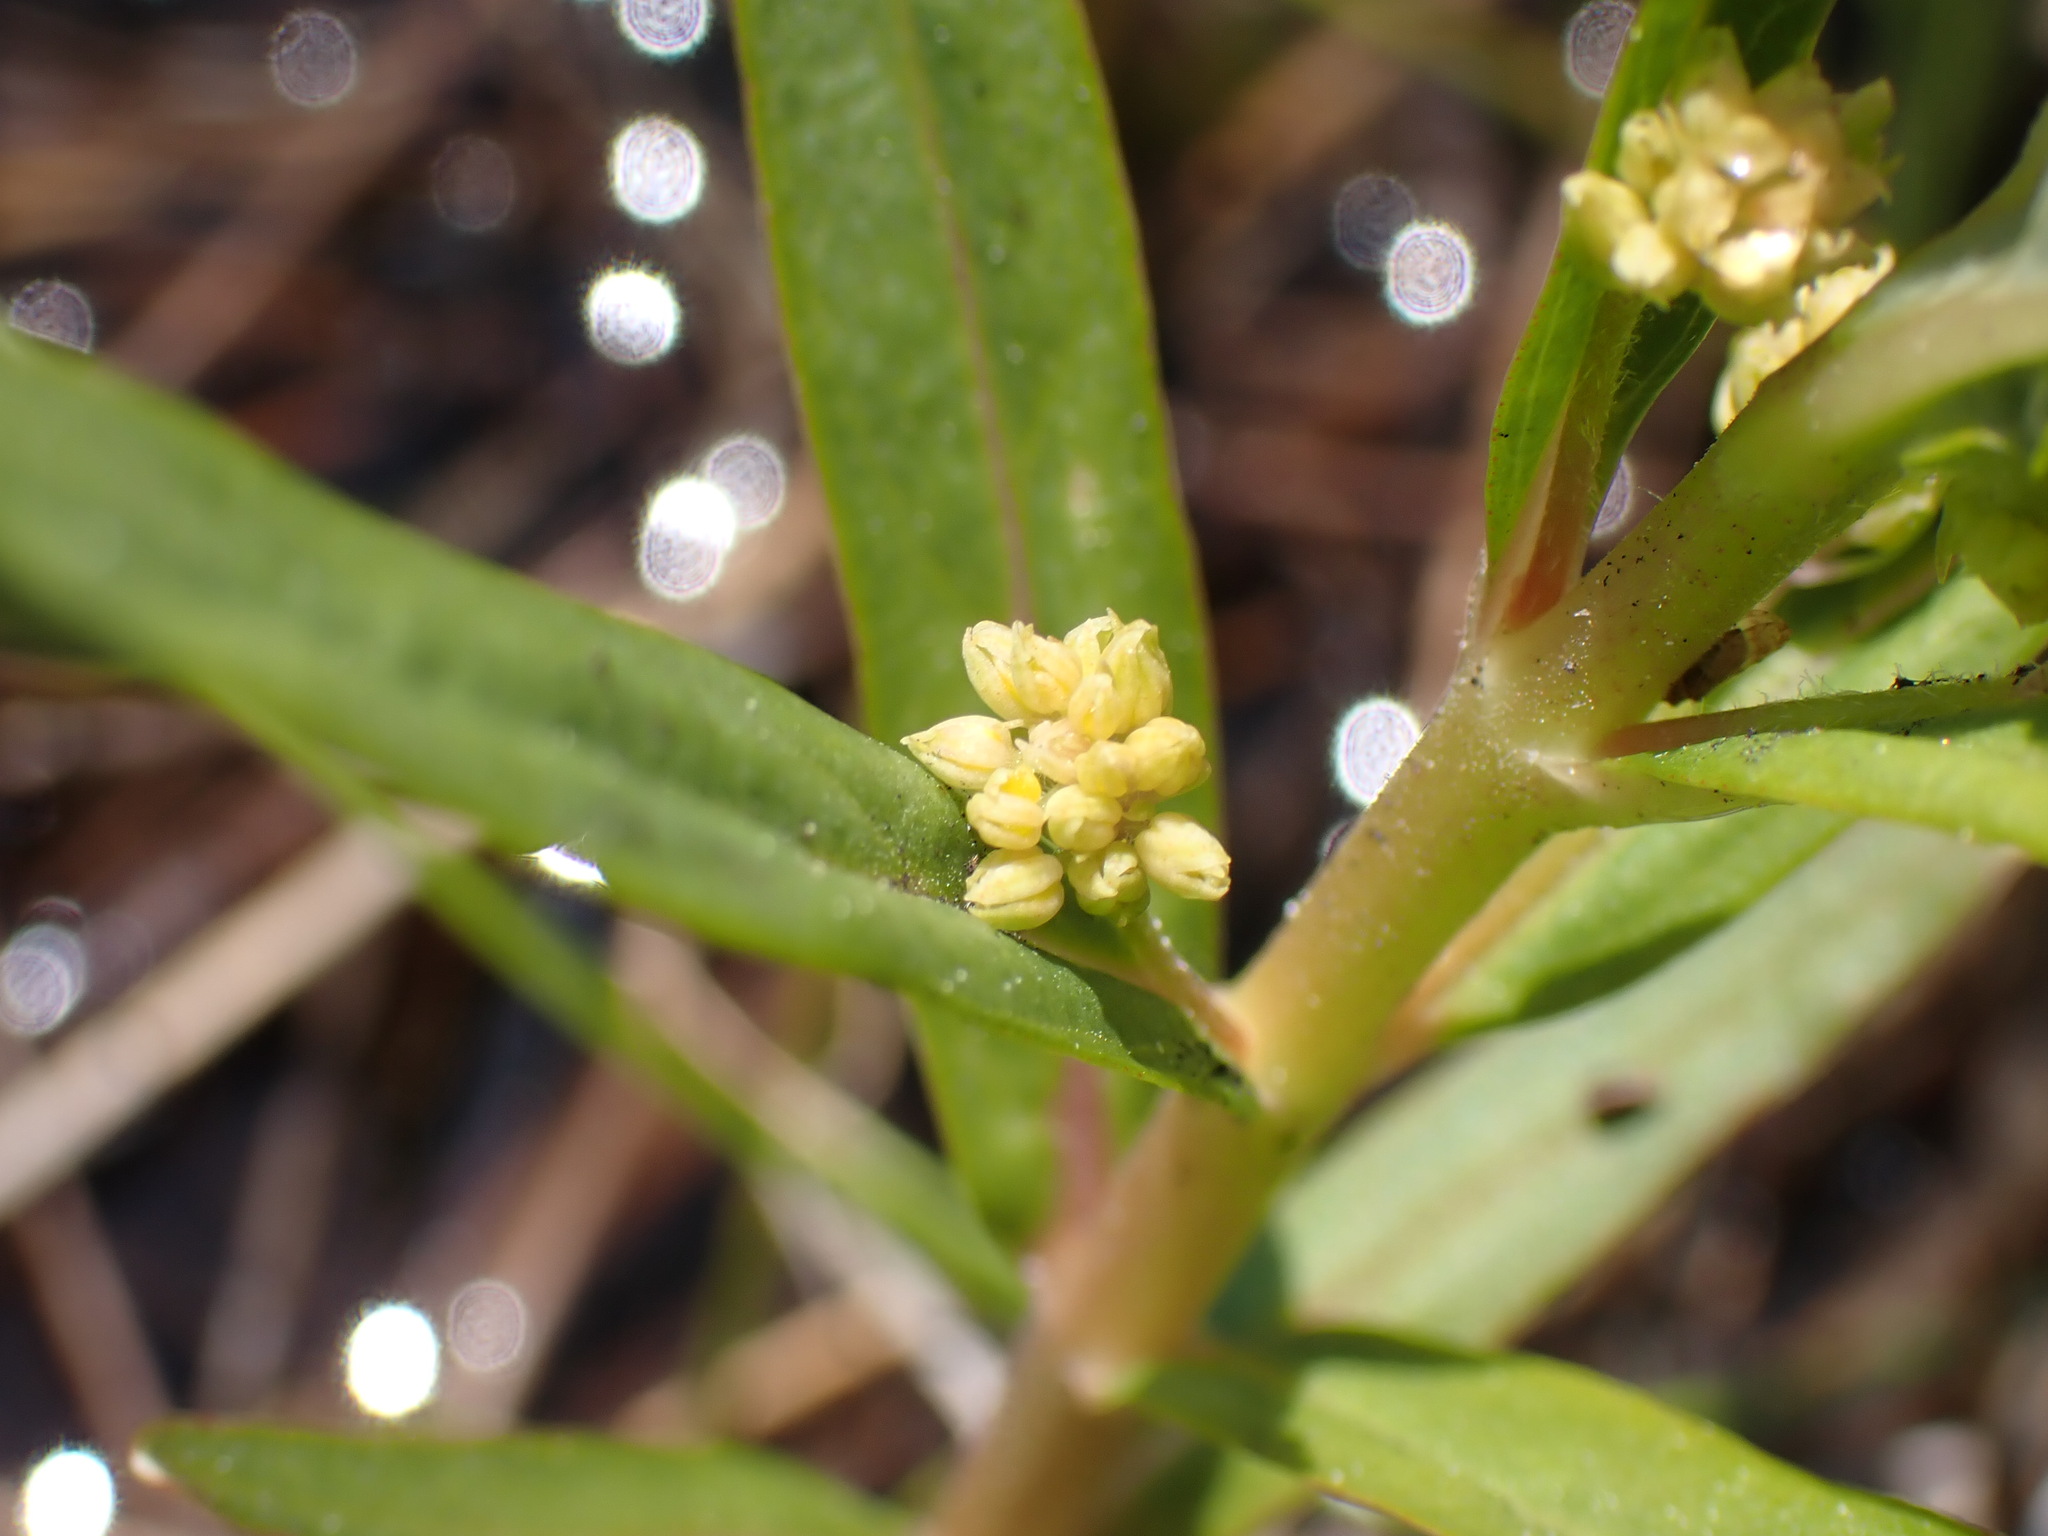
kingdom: Plantae
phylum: Tracheophyta
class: Magnoliopsida
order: Ericales
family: Primulaceae
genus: Lysimachia
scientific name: Lysimachia thyrsiflora
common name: Tufted loosestrife
